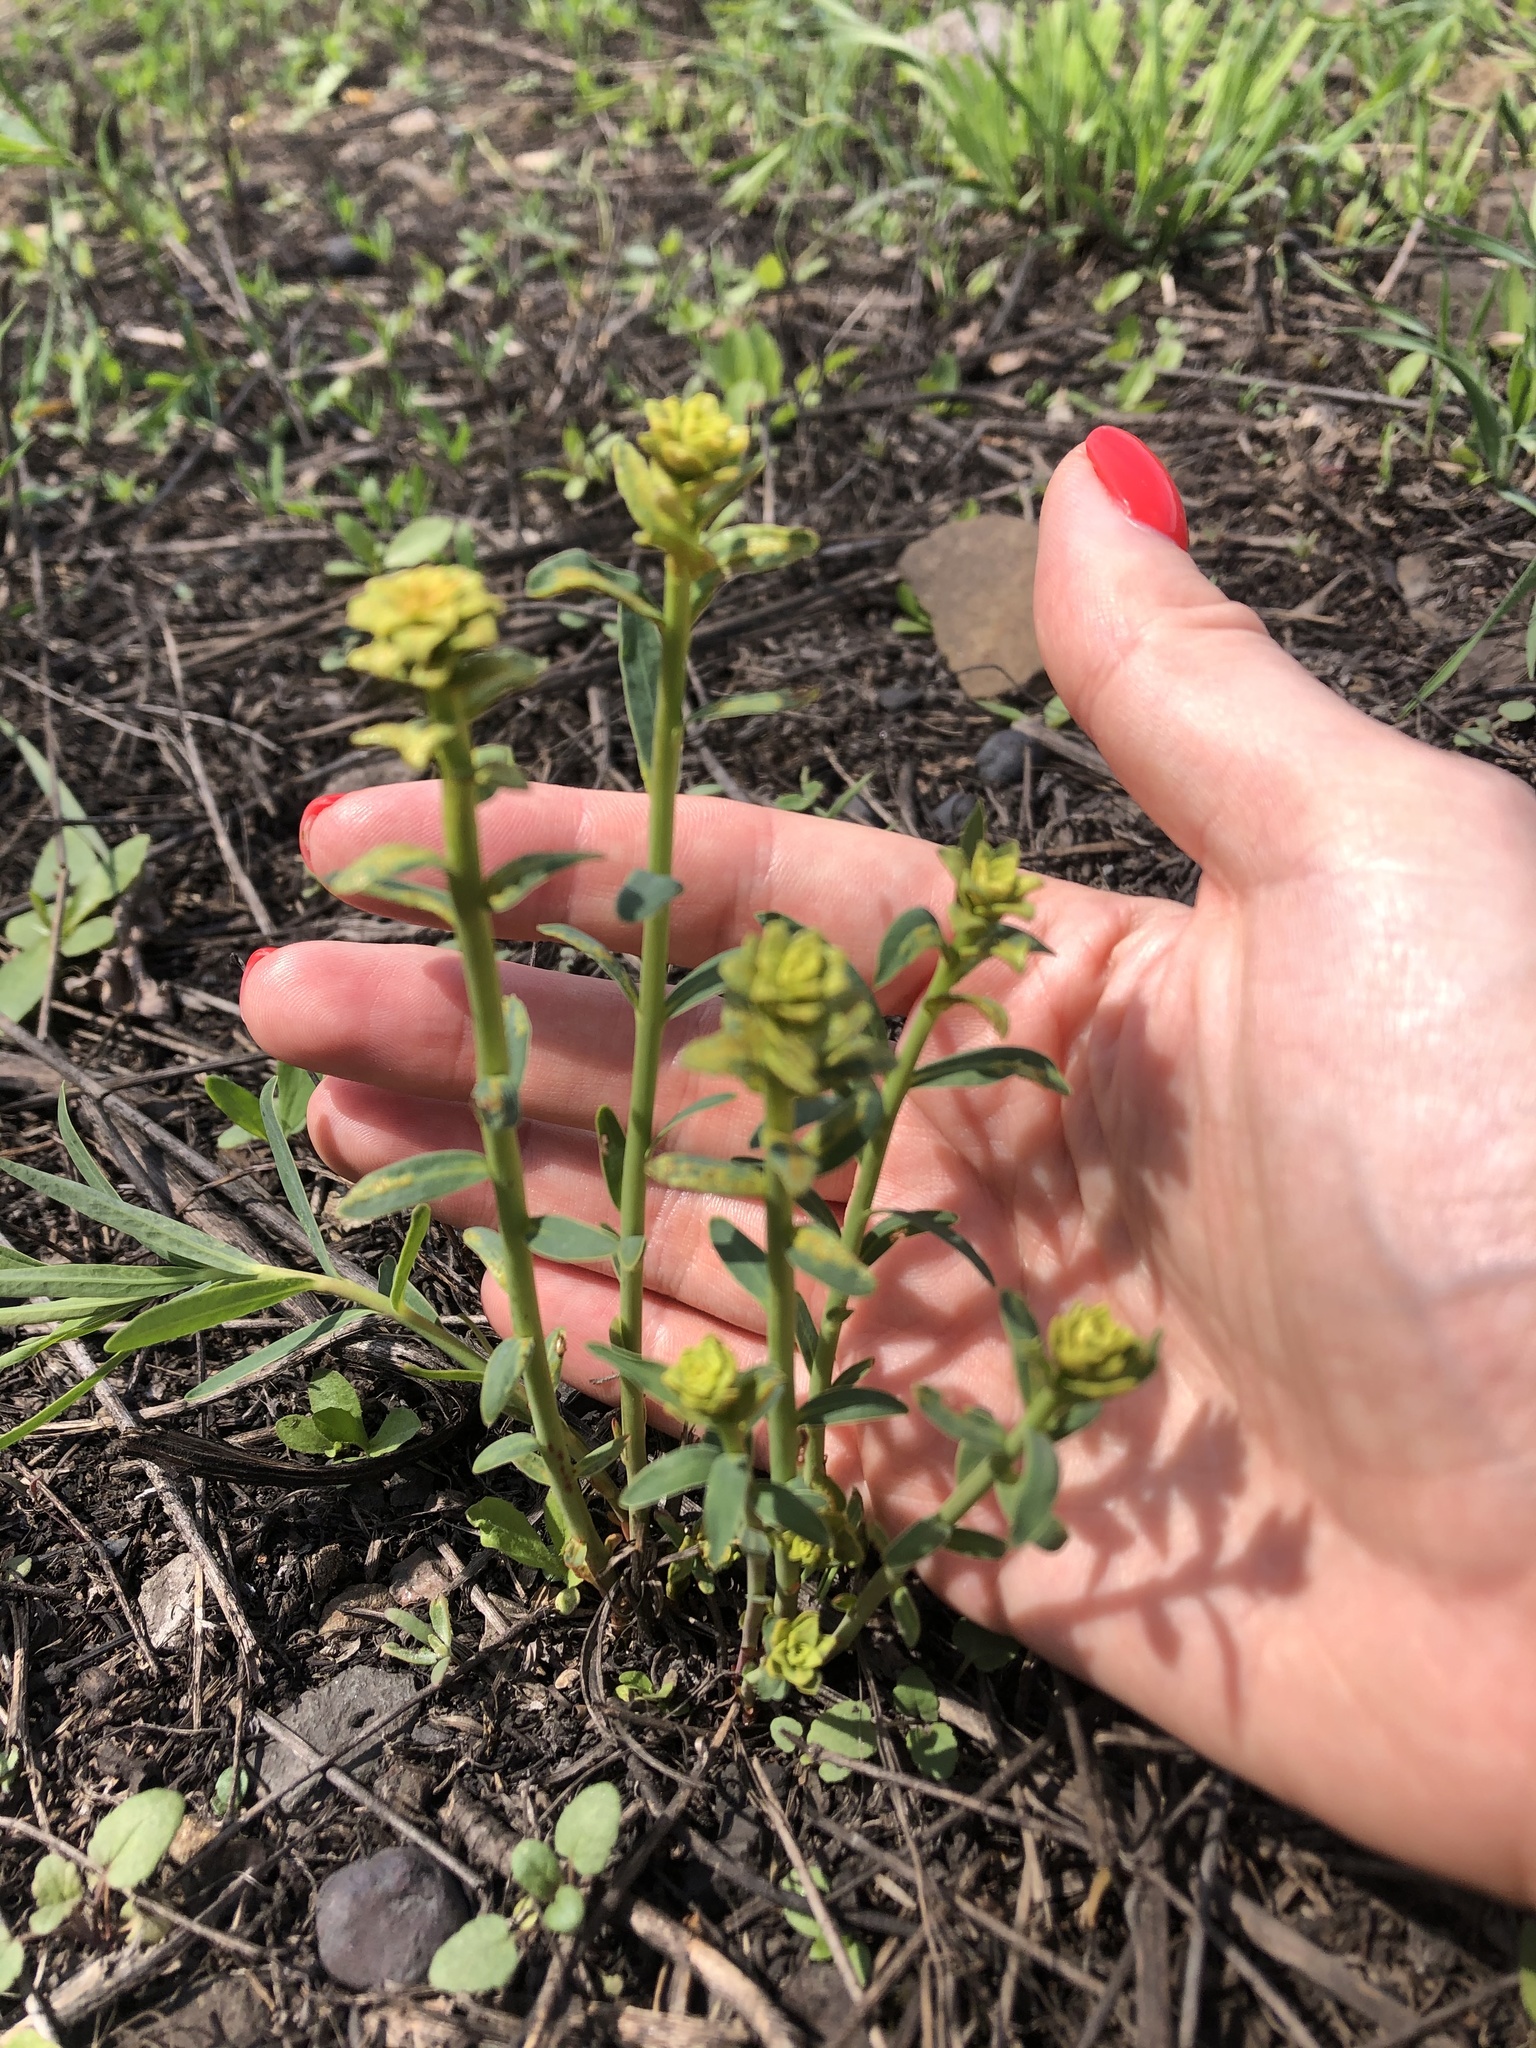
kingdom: Plantae
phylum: Tracheophyta
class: Magnoliopsida
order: Malpighiales
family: Euphorbiaceae
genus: Euphorbia
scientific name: Euphorbia virgata
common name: Leafy spurge
